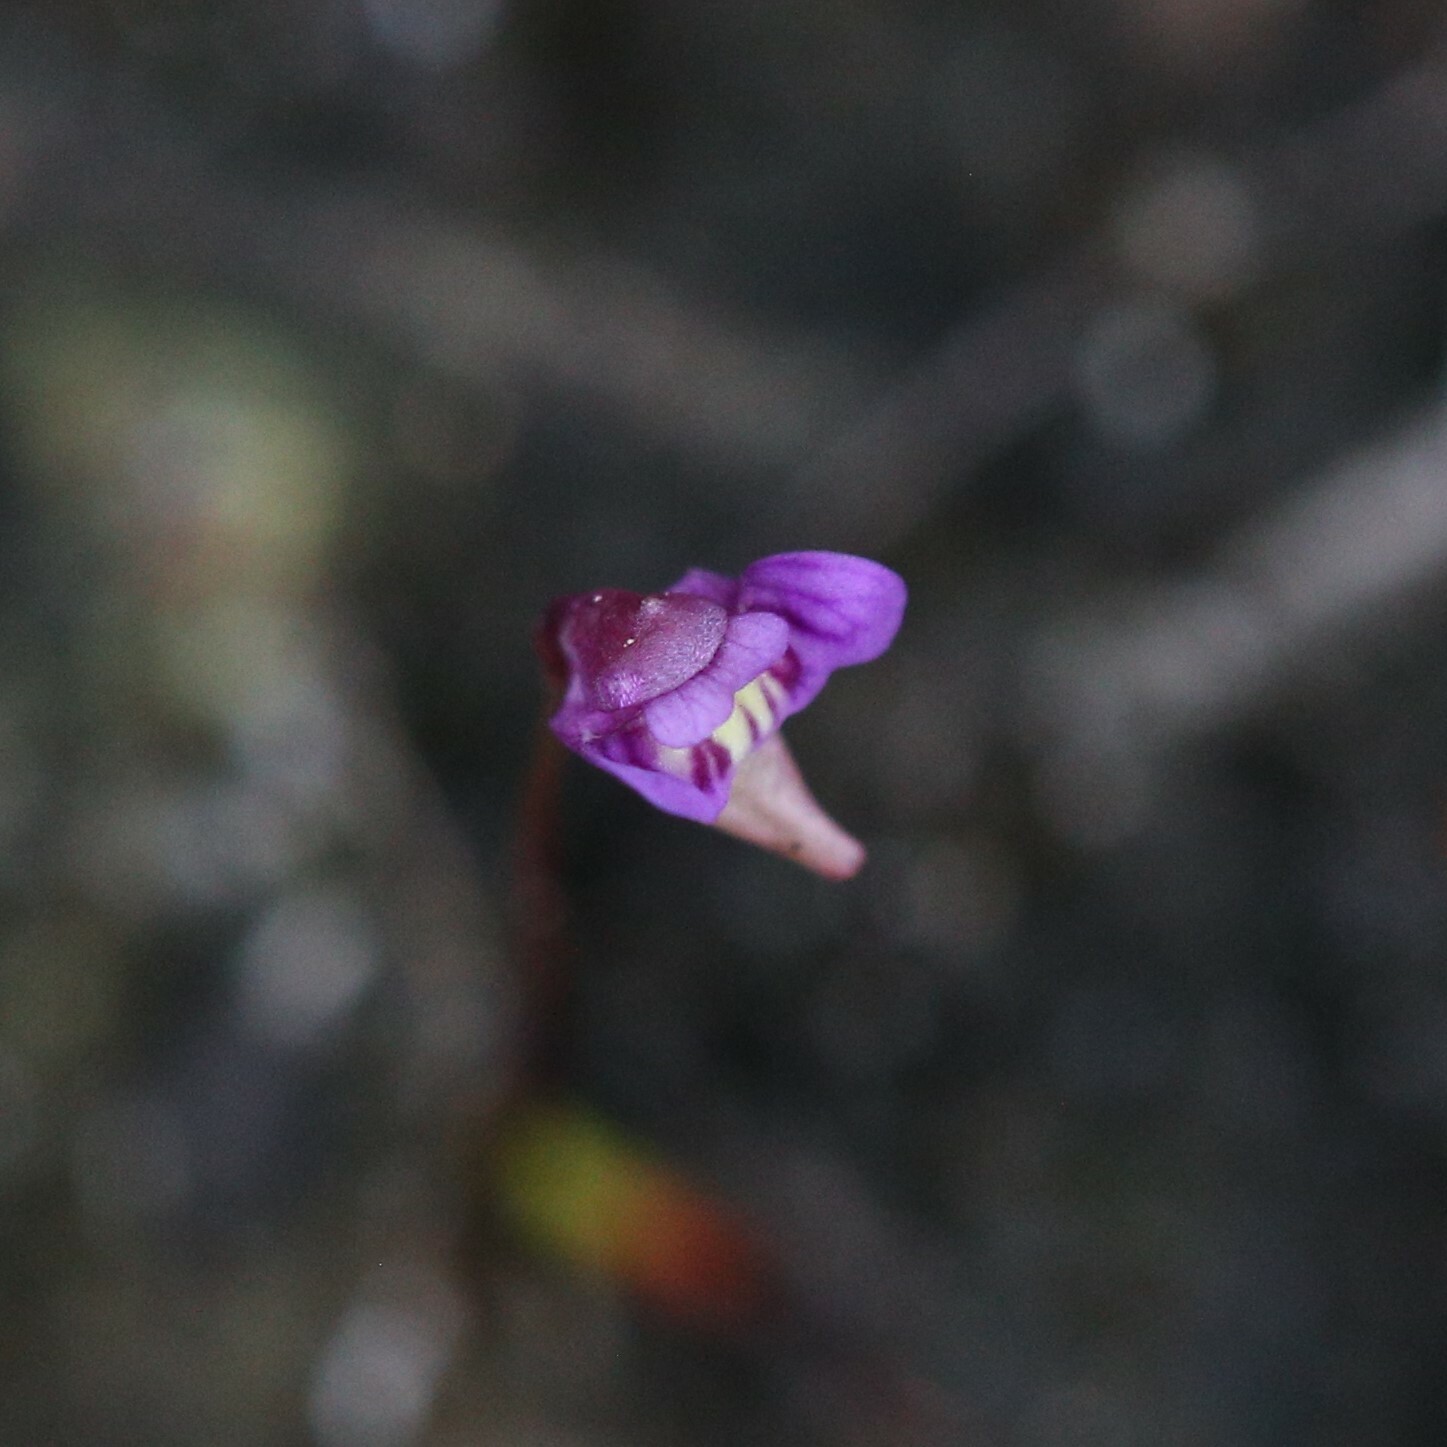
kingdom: Plantae
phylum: Tracheophyta
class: Magnoliopsida
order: Lamiales
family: Lentibulariaceae
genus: Utricularia
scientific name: Utricularia violacea
